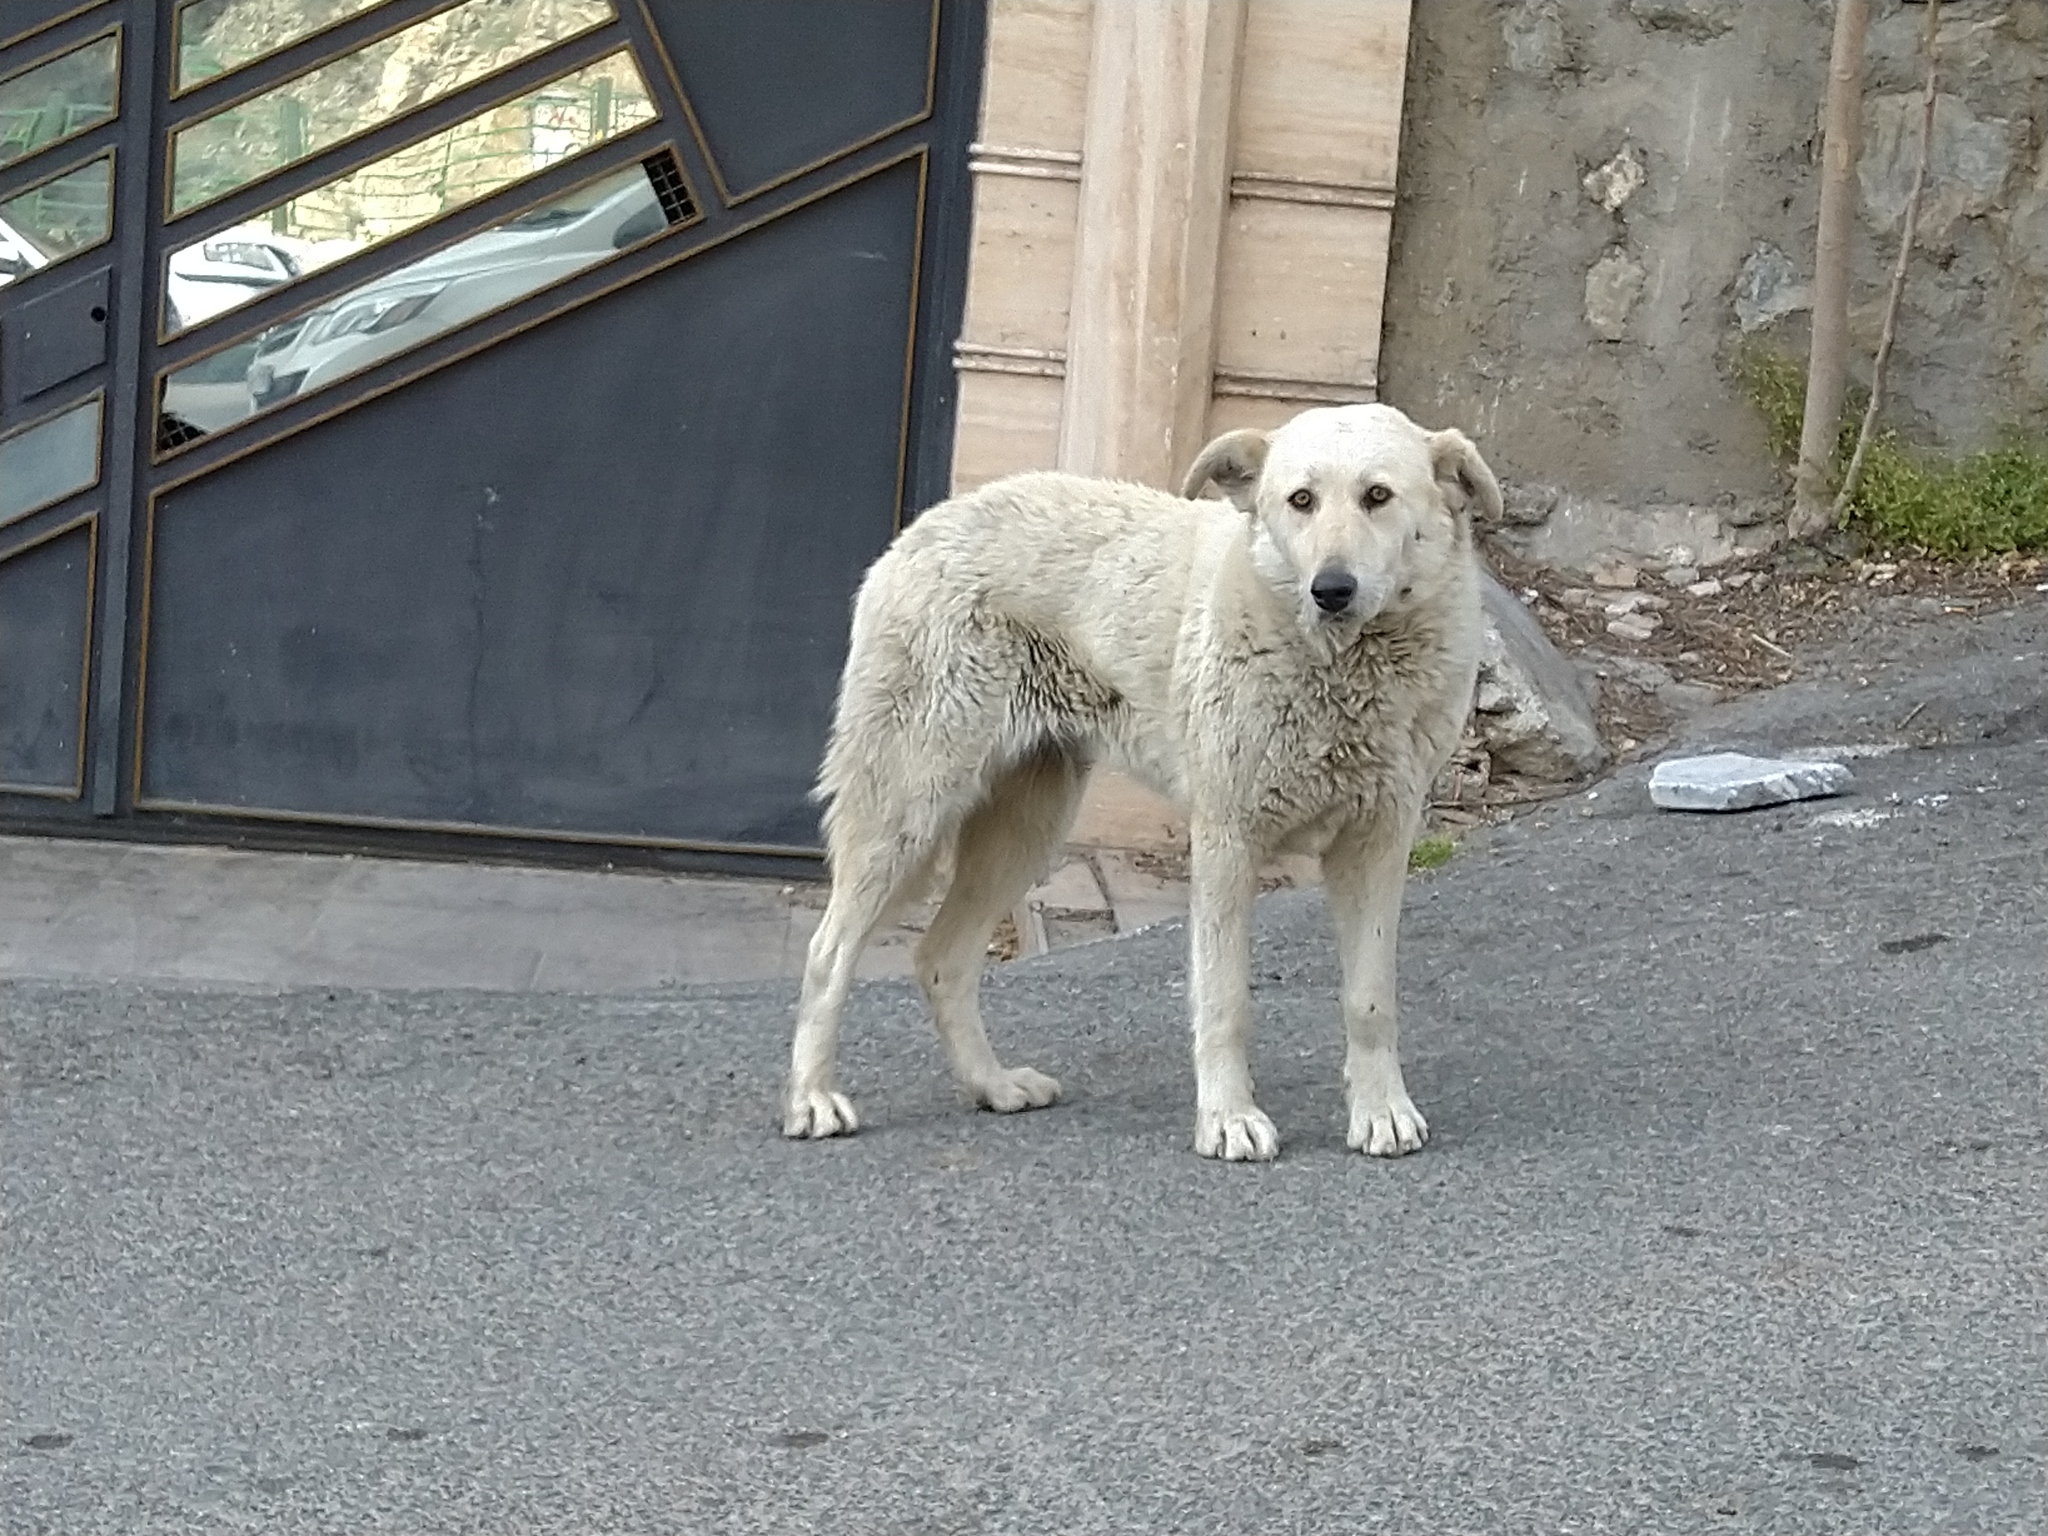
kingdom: Animalia
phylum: Chordata
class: Mammalia
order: Carnivora
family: Canidae
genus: Canis
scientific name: Canis lupus
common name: Gray wolf
